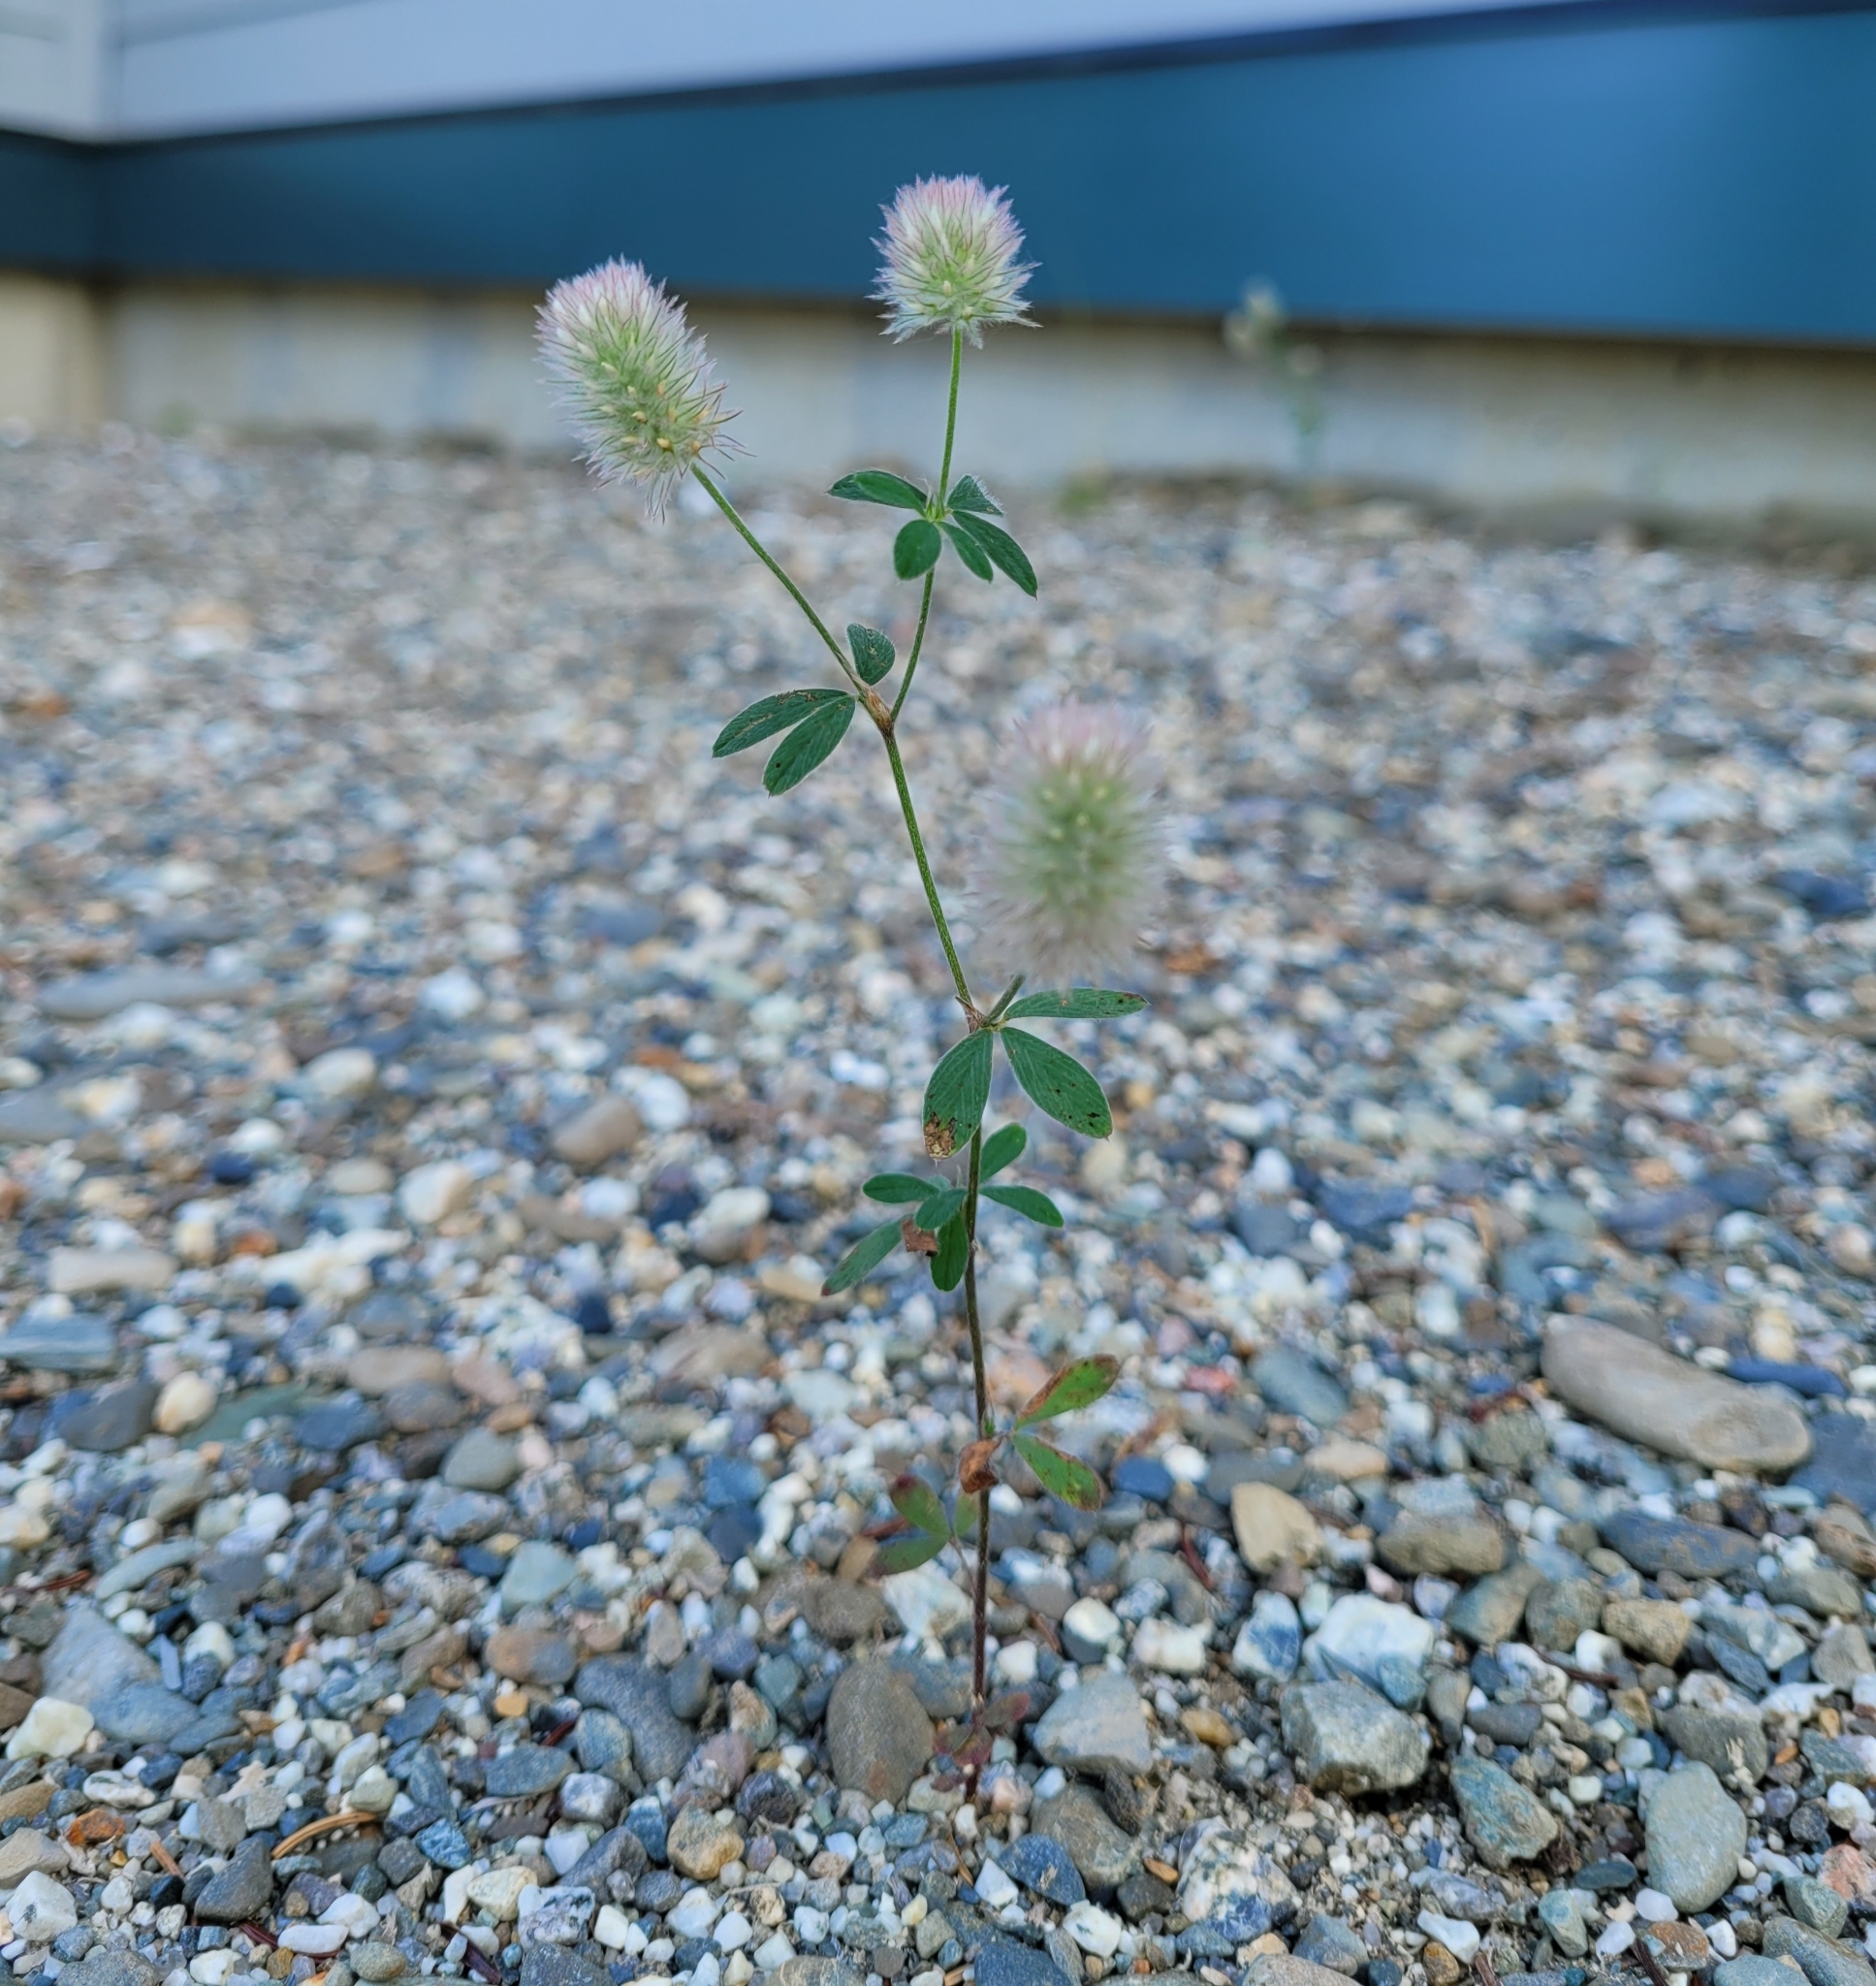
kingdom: Plantae
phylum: Tracheophyta
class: Magnoliopsida
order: Fabales
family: Fabaceae
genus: Trifolium
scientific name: Trifolium arvense
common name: Hare's-foot clover
